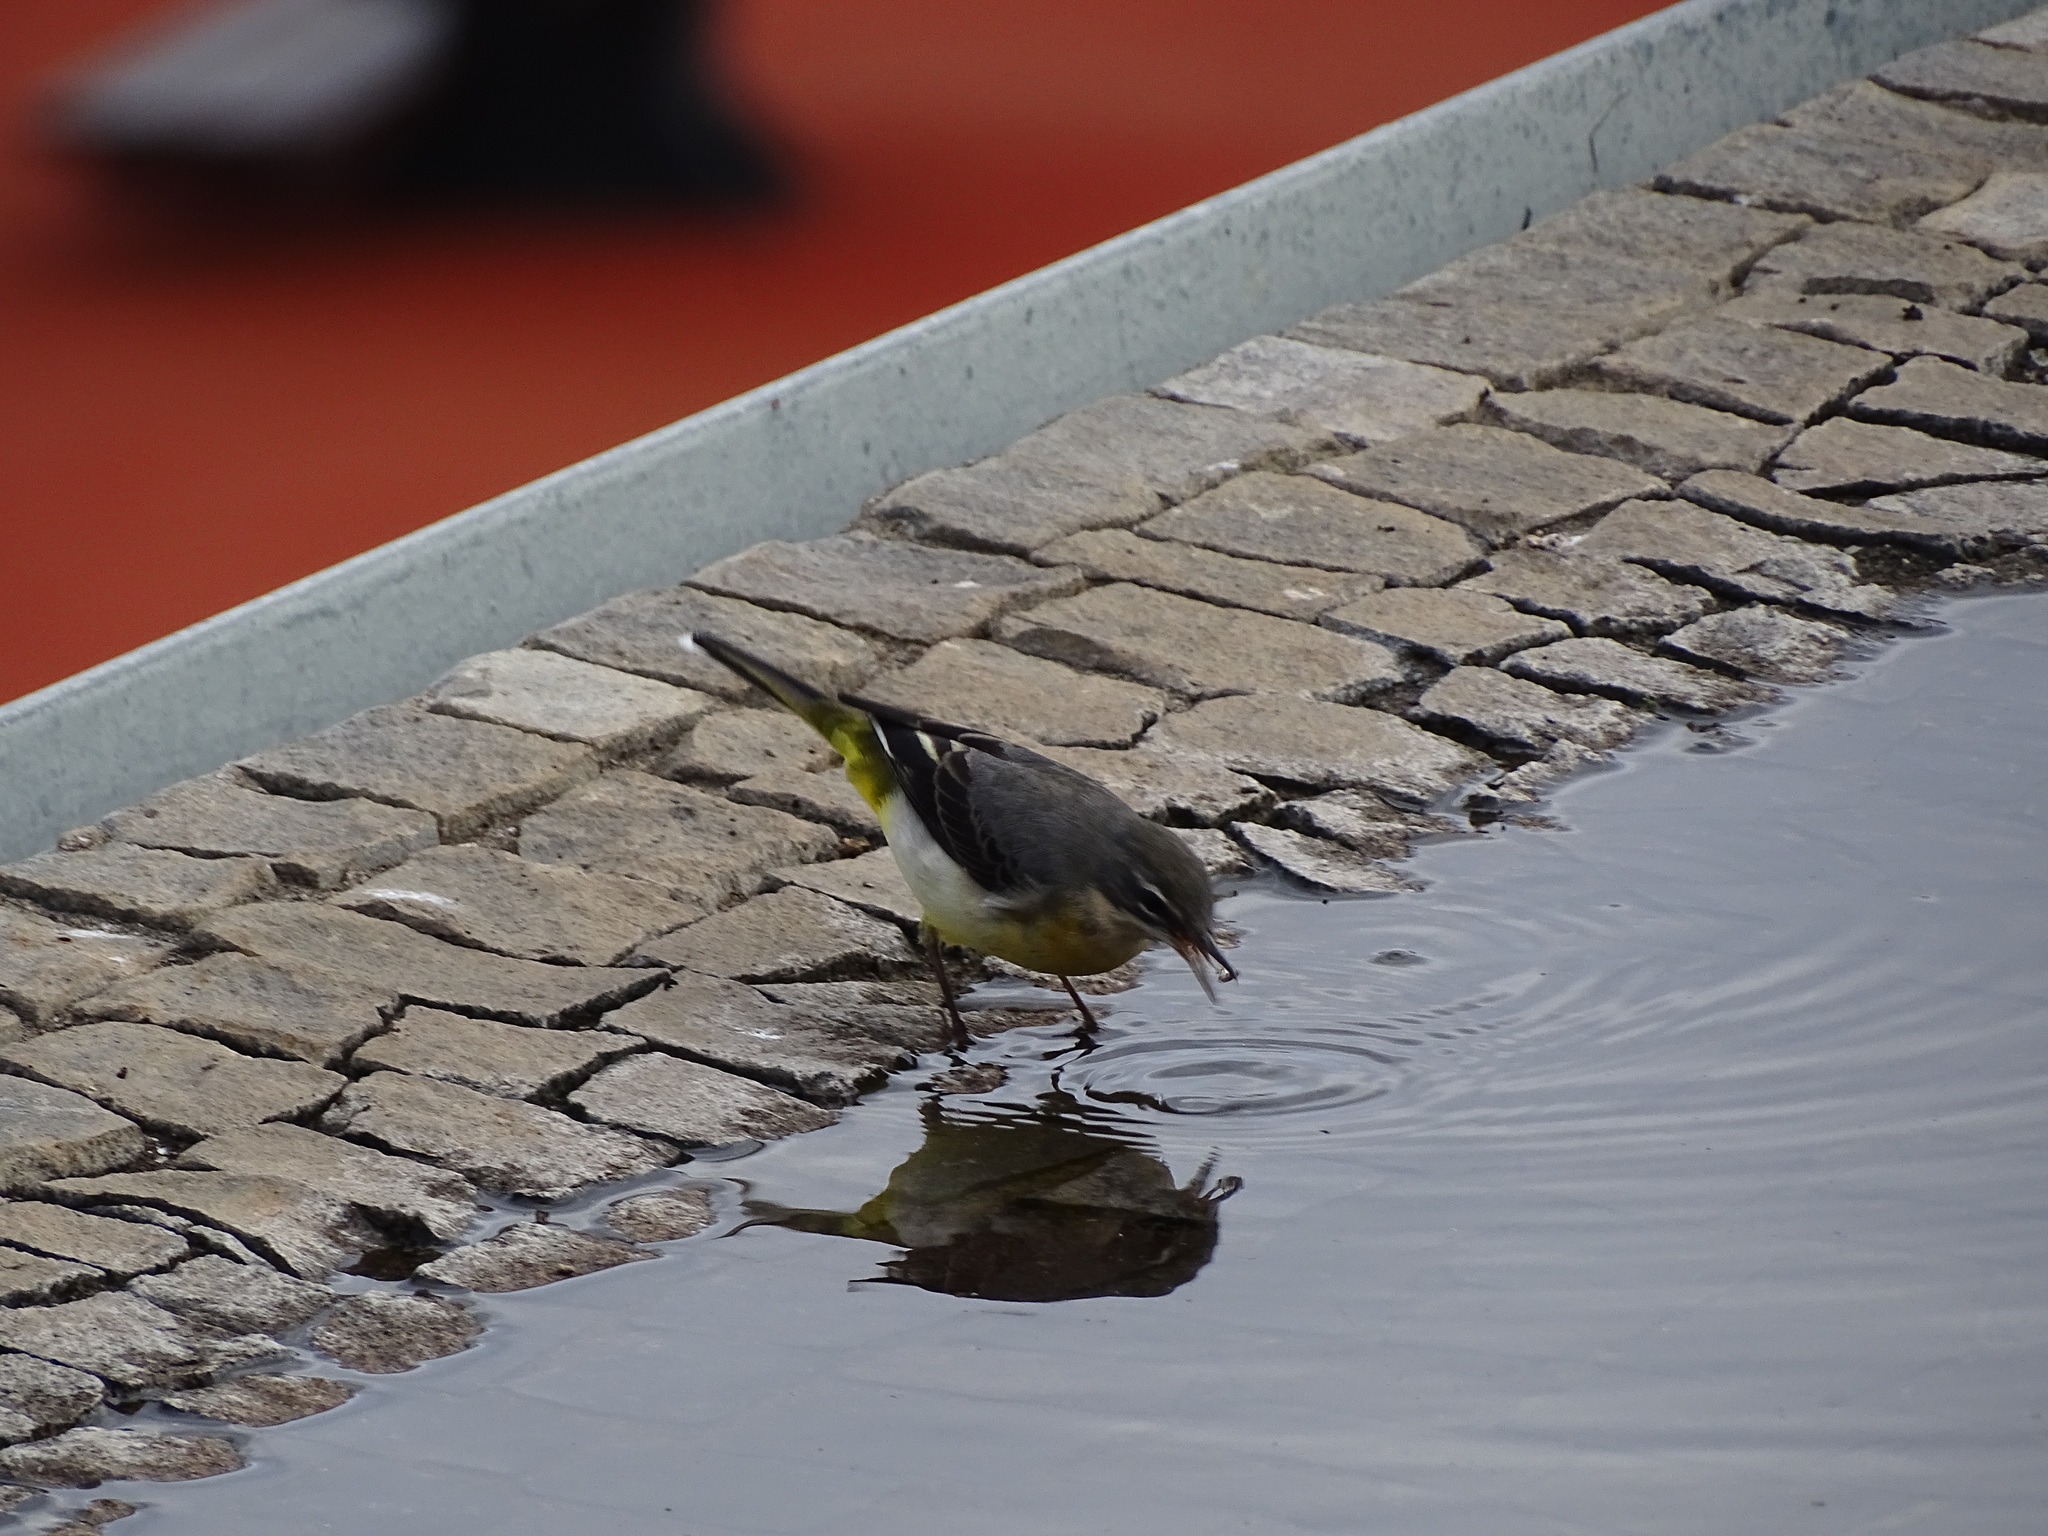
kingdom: Animalia
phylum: Chordata
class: Aves
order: Passeriformes
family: Motacillidae
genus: Motacilla
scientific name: Motacilla cinerea
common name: Grey wagtail
